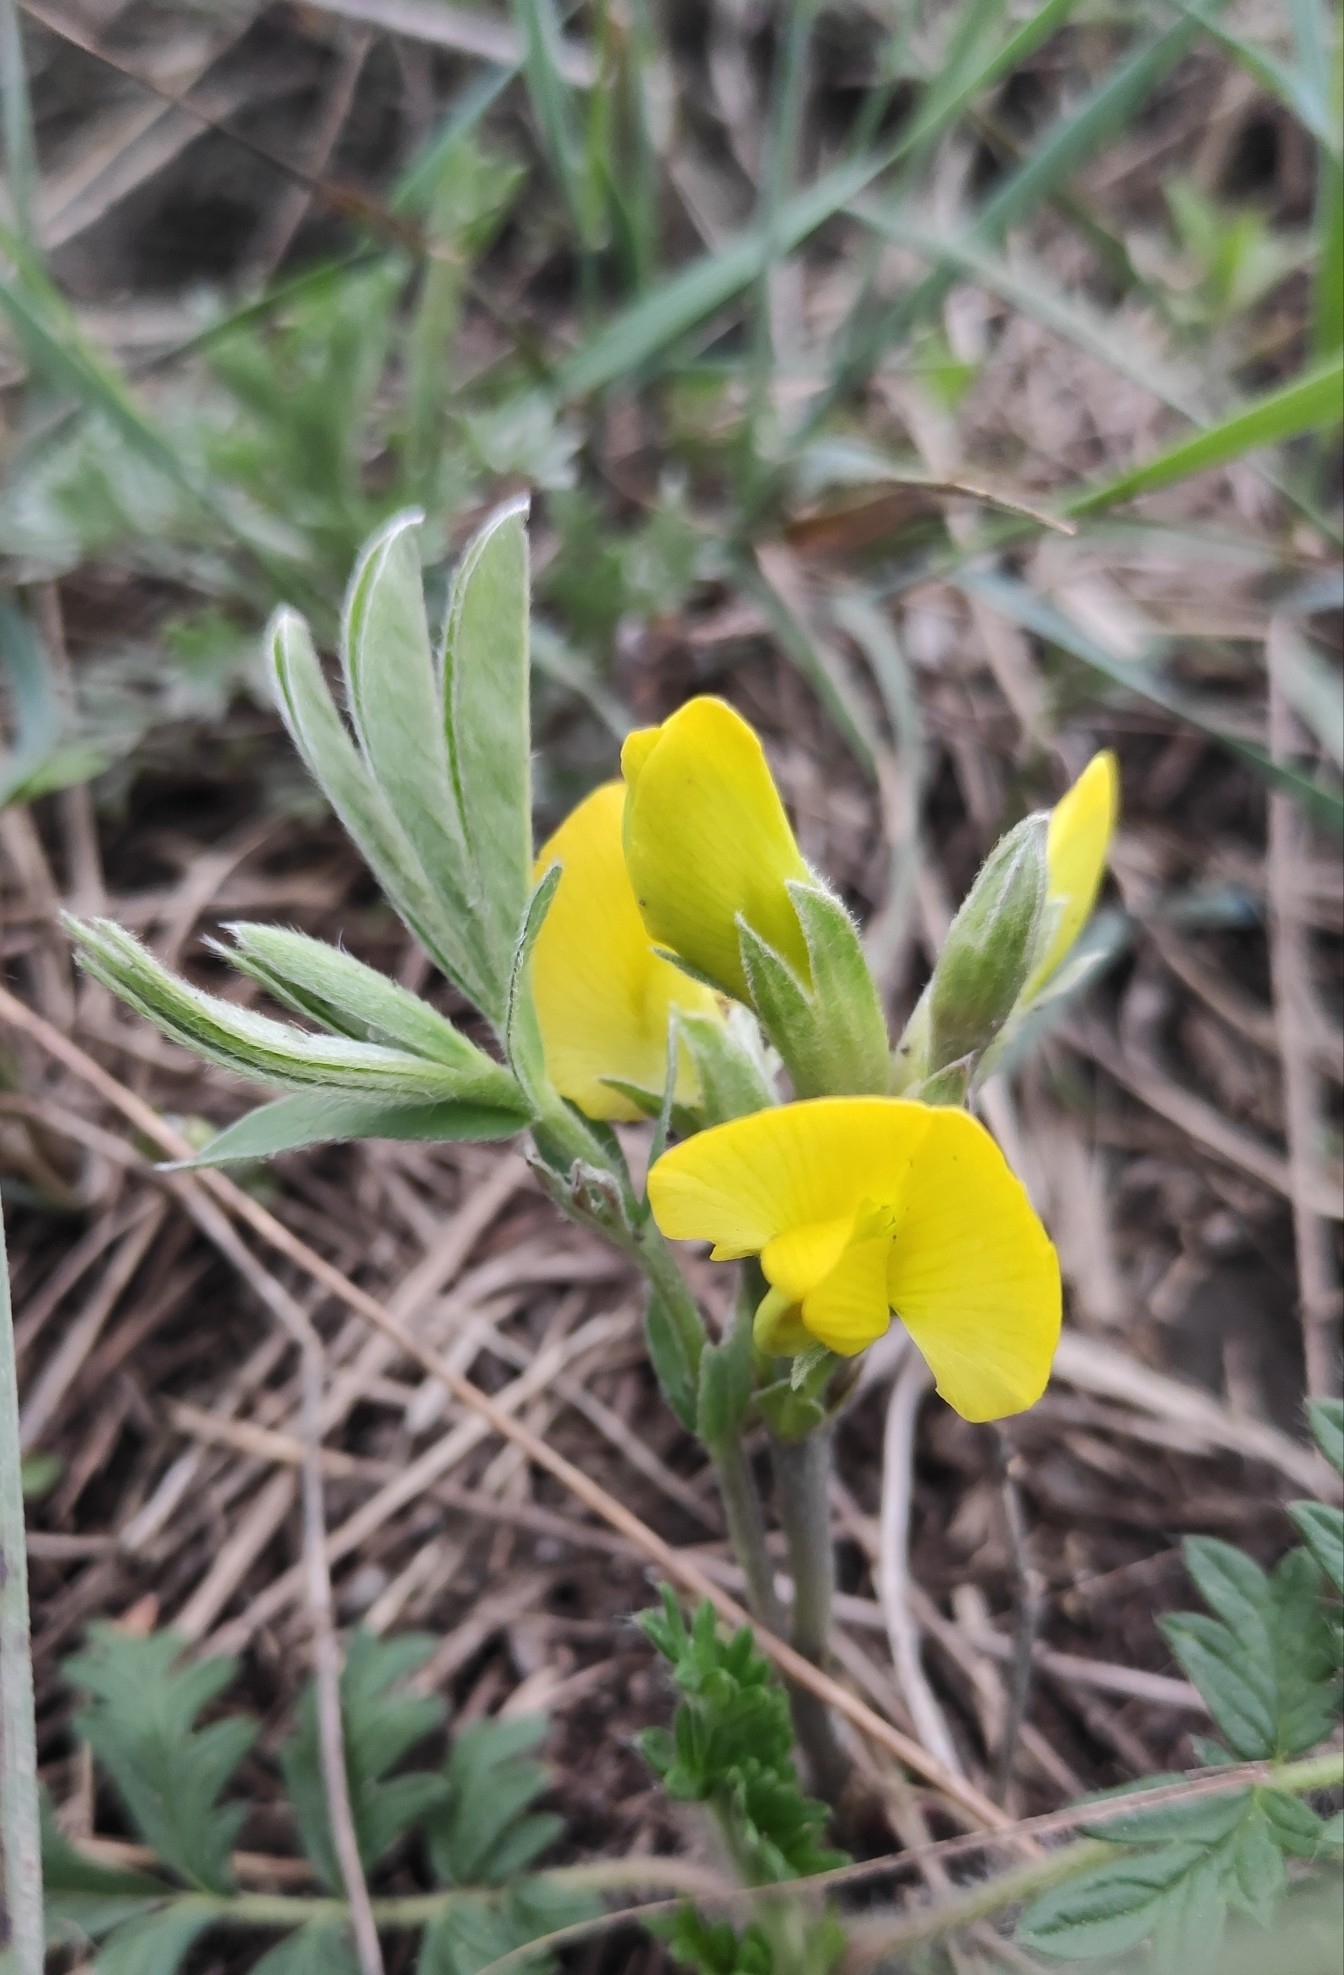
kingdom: Plantae
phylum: Tracheophyta
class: Magnoliopsida
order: Fabales
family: Fabaceae
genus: Thermopsis
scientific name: Thermopsis lanceolata
